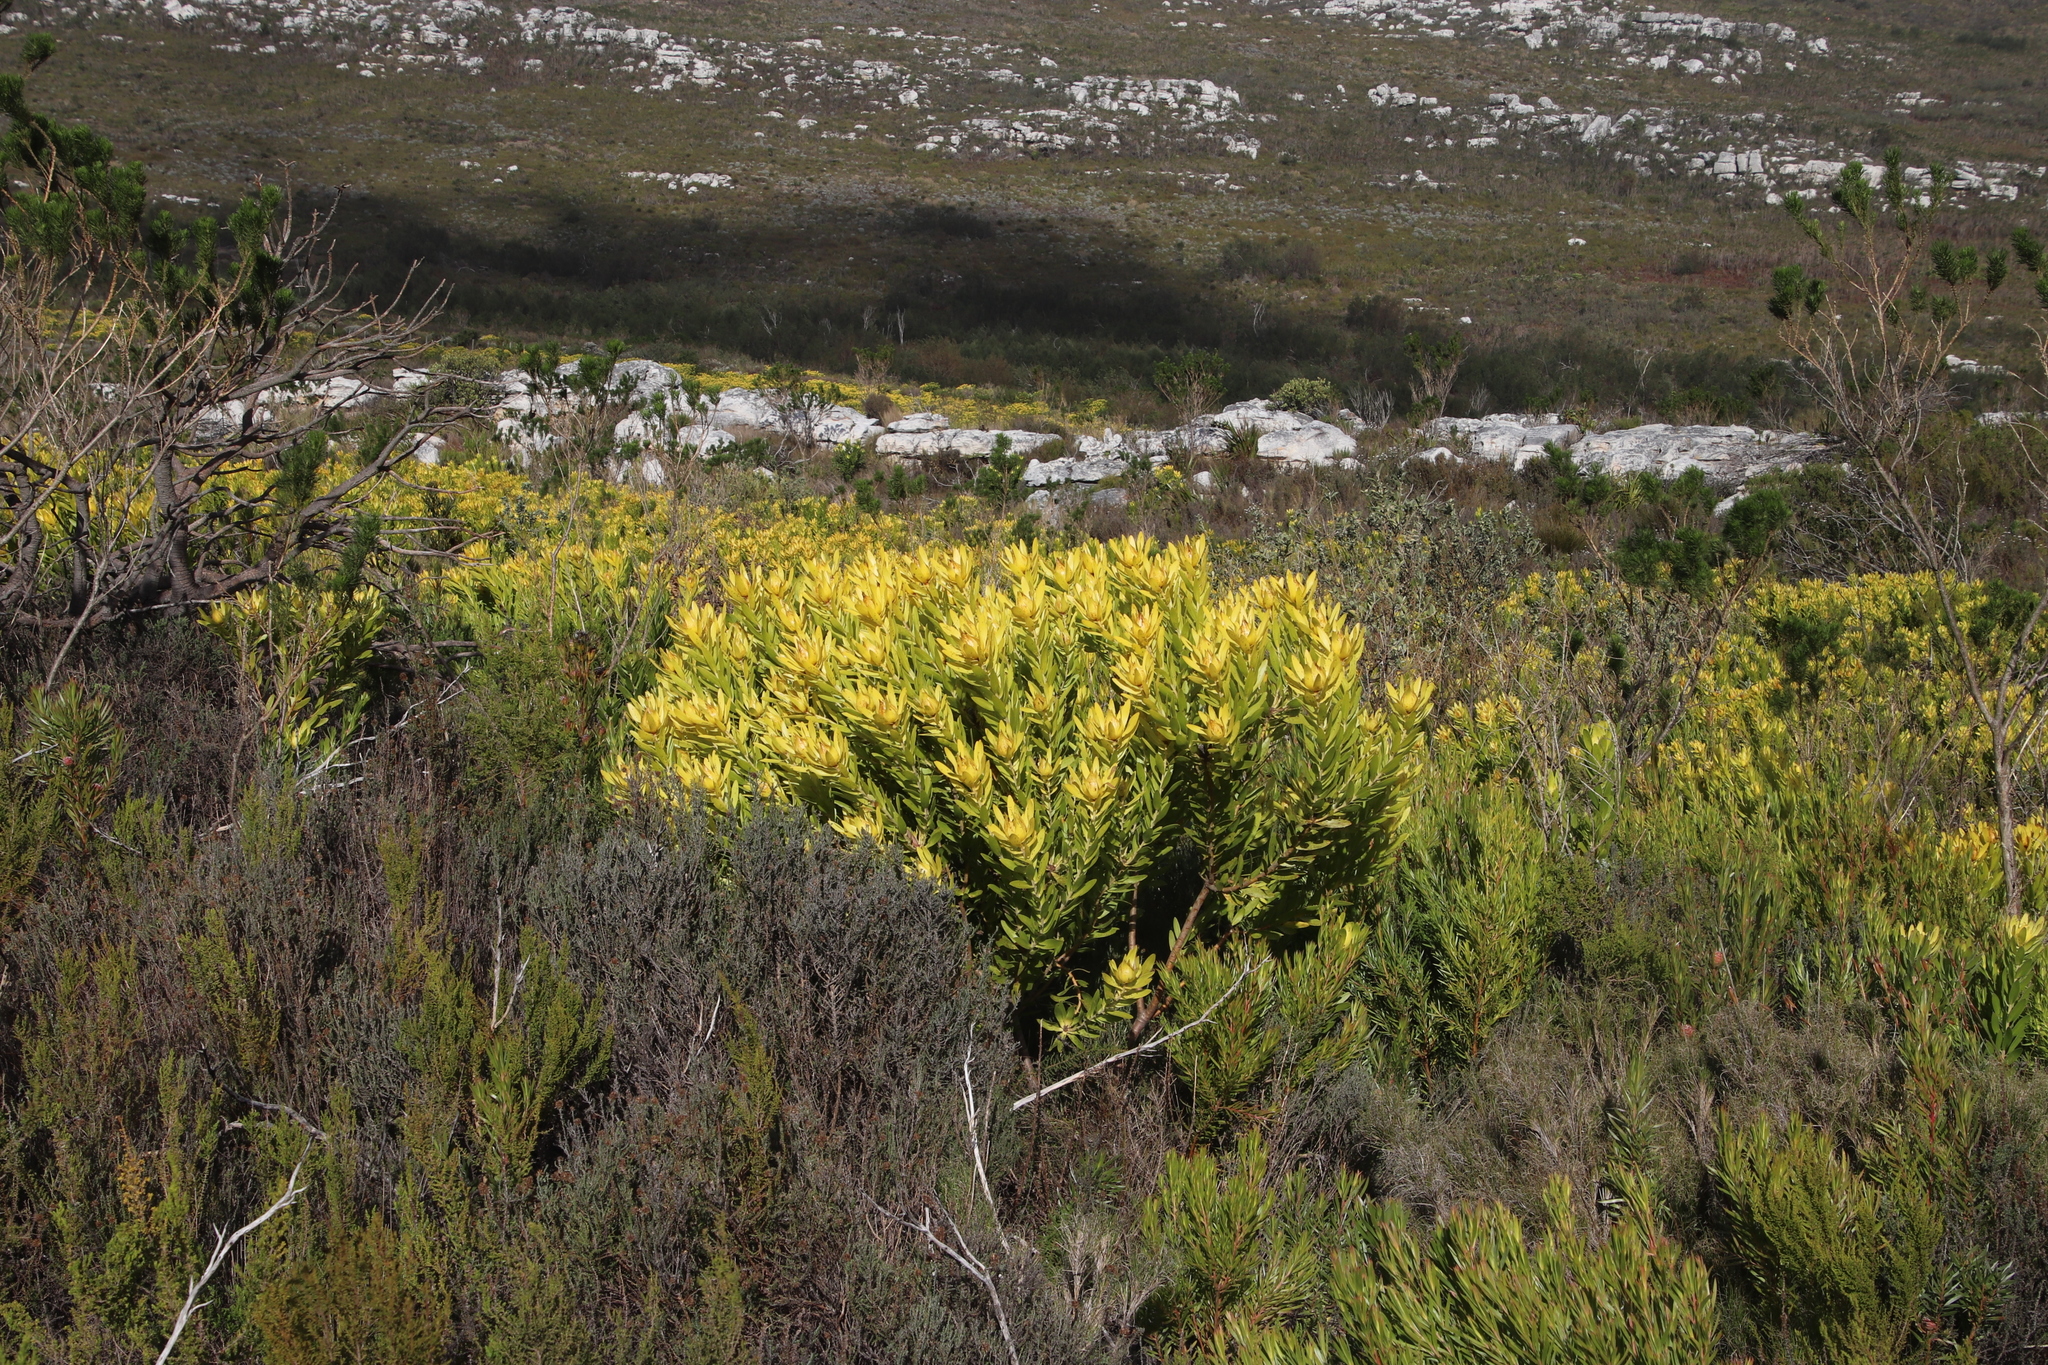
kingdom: Plantae
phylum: Tracheophyta
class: Magnoliopsida
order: Proteales
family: Proteaceae
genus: Leucadendron
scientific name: Leucadendron laureolum
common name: Golden sunshinebush
